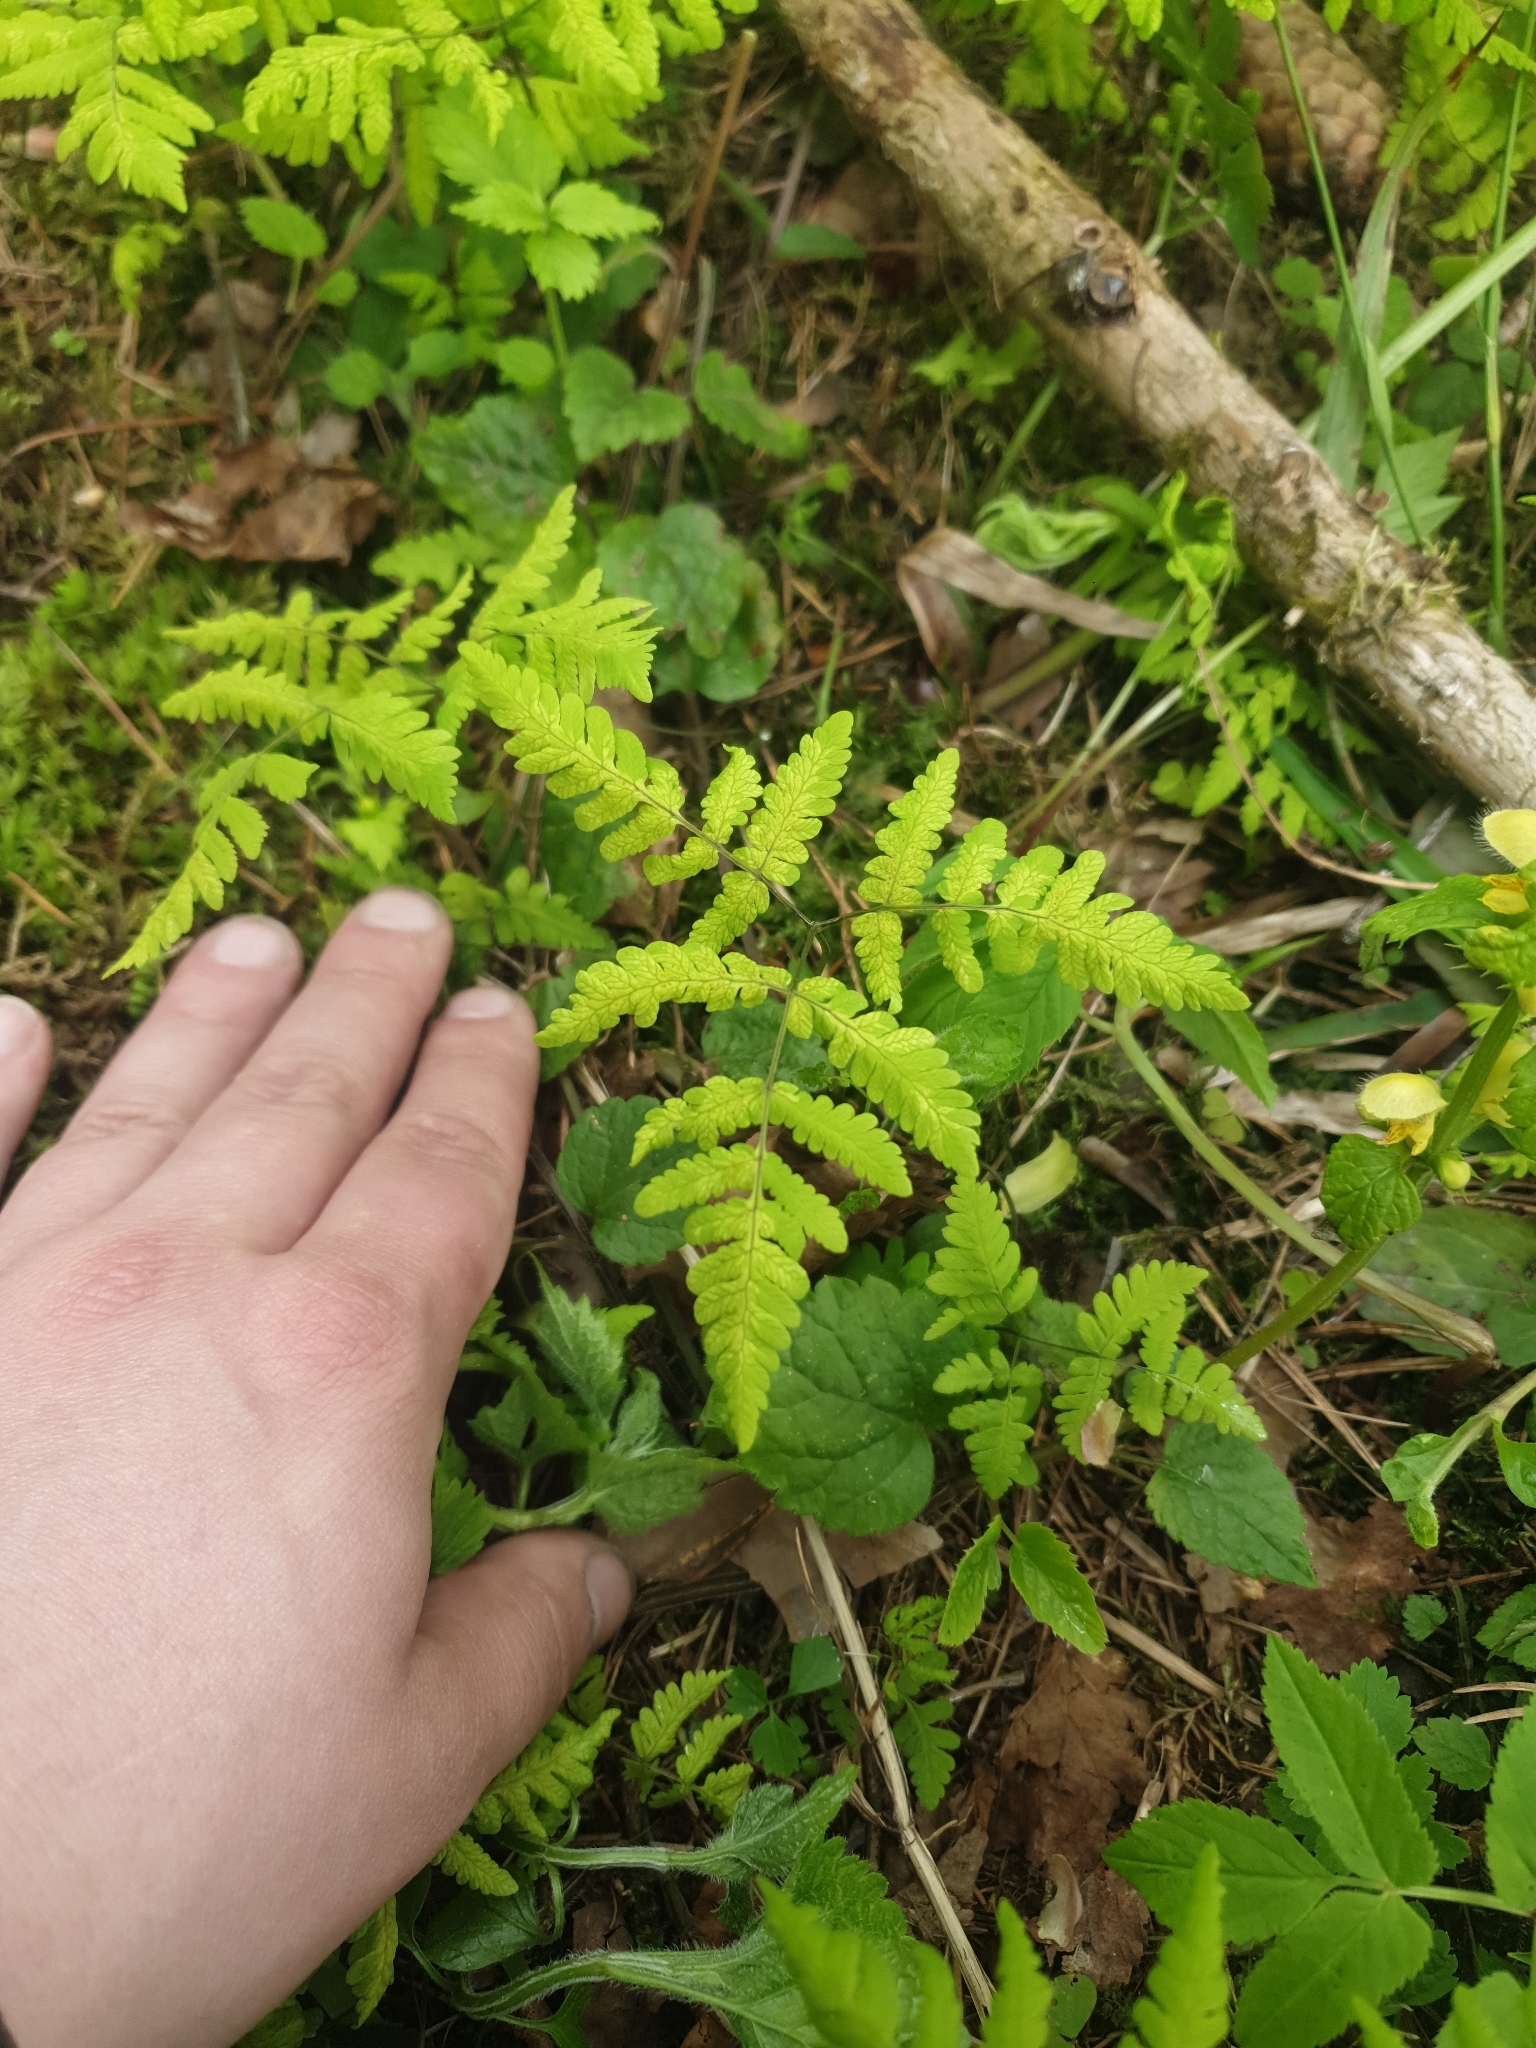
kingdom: Plantae
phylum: Tracheophyta
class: Polypodiopsida
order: Polypodiales
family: Cystopteridaceae
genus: Gymnocarpium
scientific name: Gymnocarpium dryopteris
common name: Oak fern
